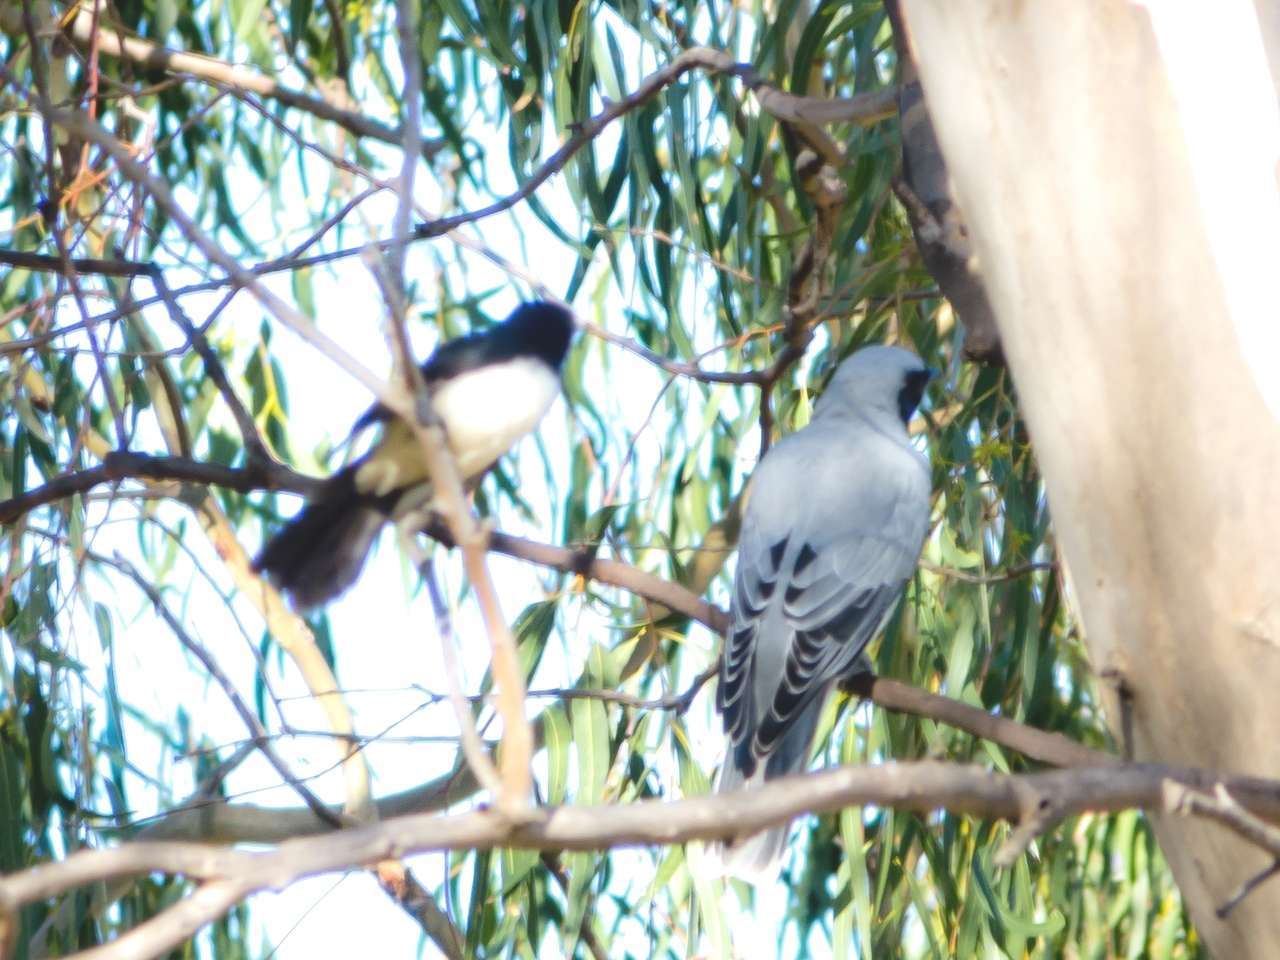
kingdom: Animalia
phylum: Chordata
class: Aves
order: Passeriformes
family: Campephagidae
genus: Coracina
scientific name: Coracina novaehollandiae
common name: Black-faced cuckooshrike
